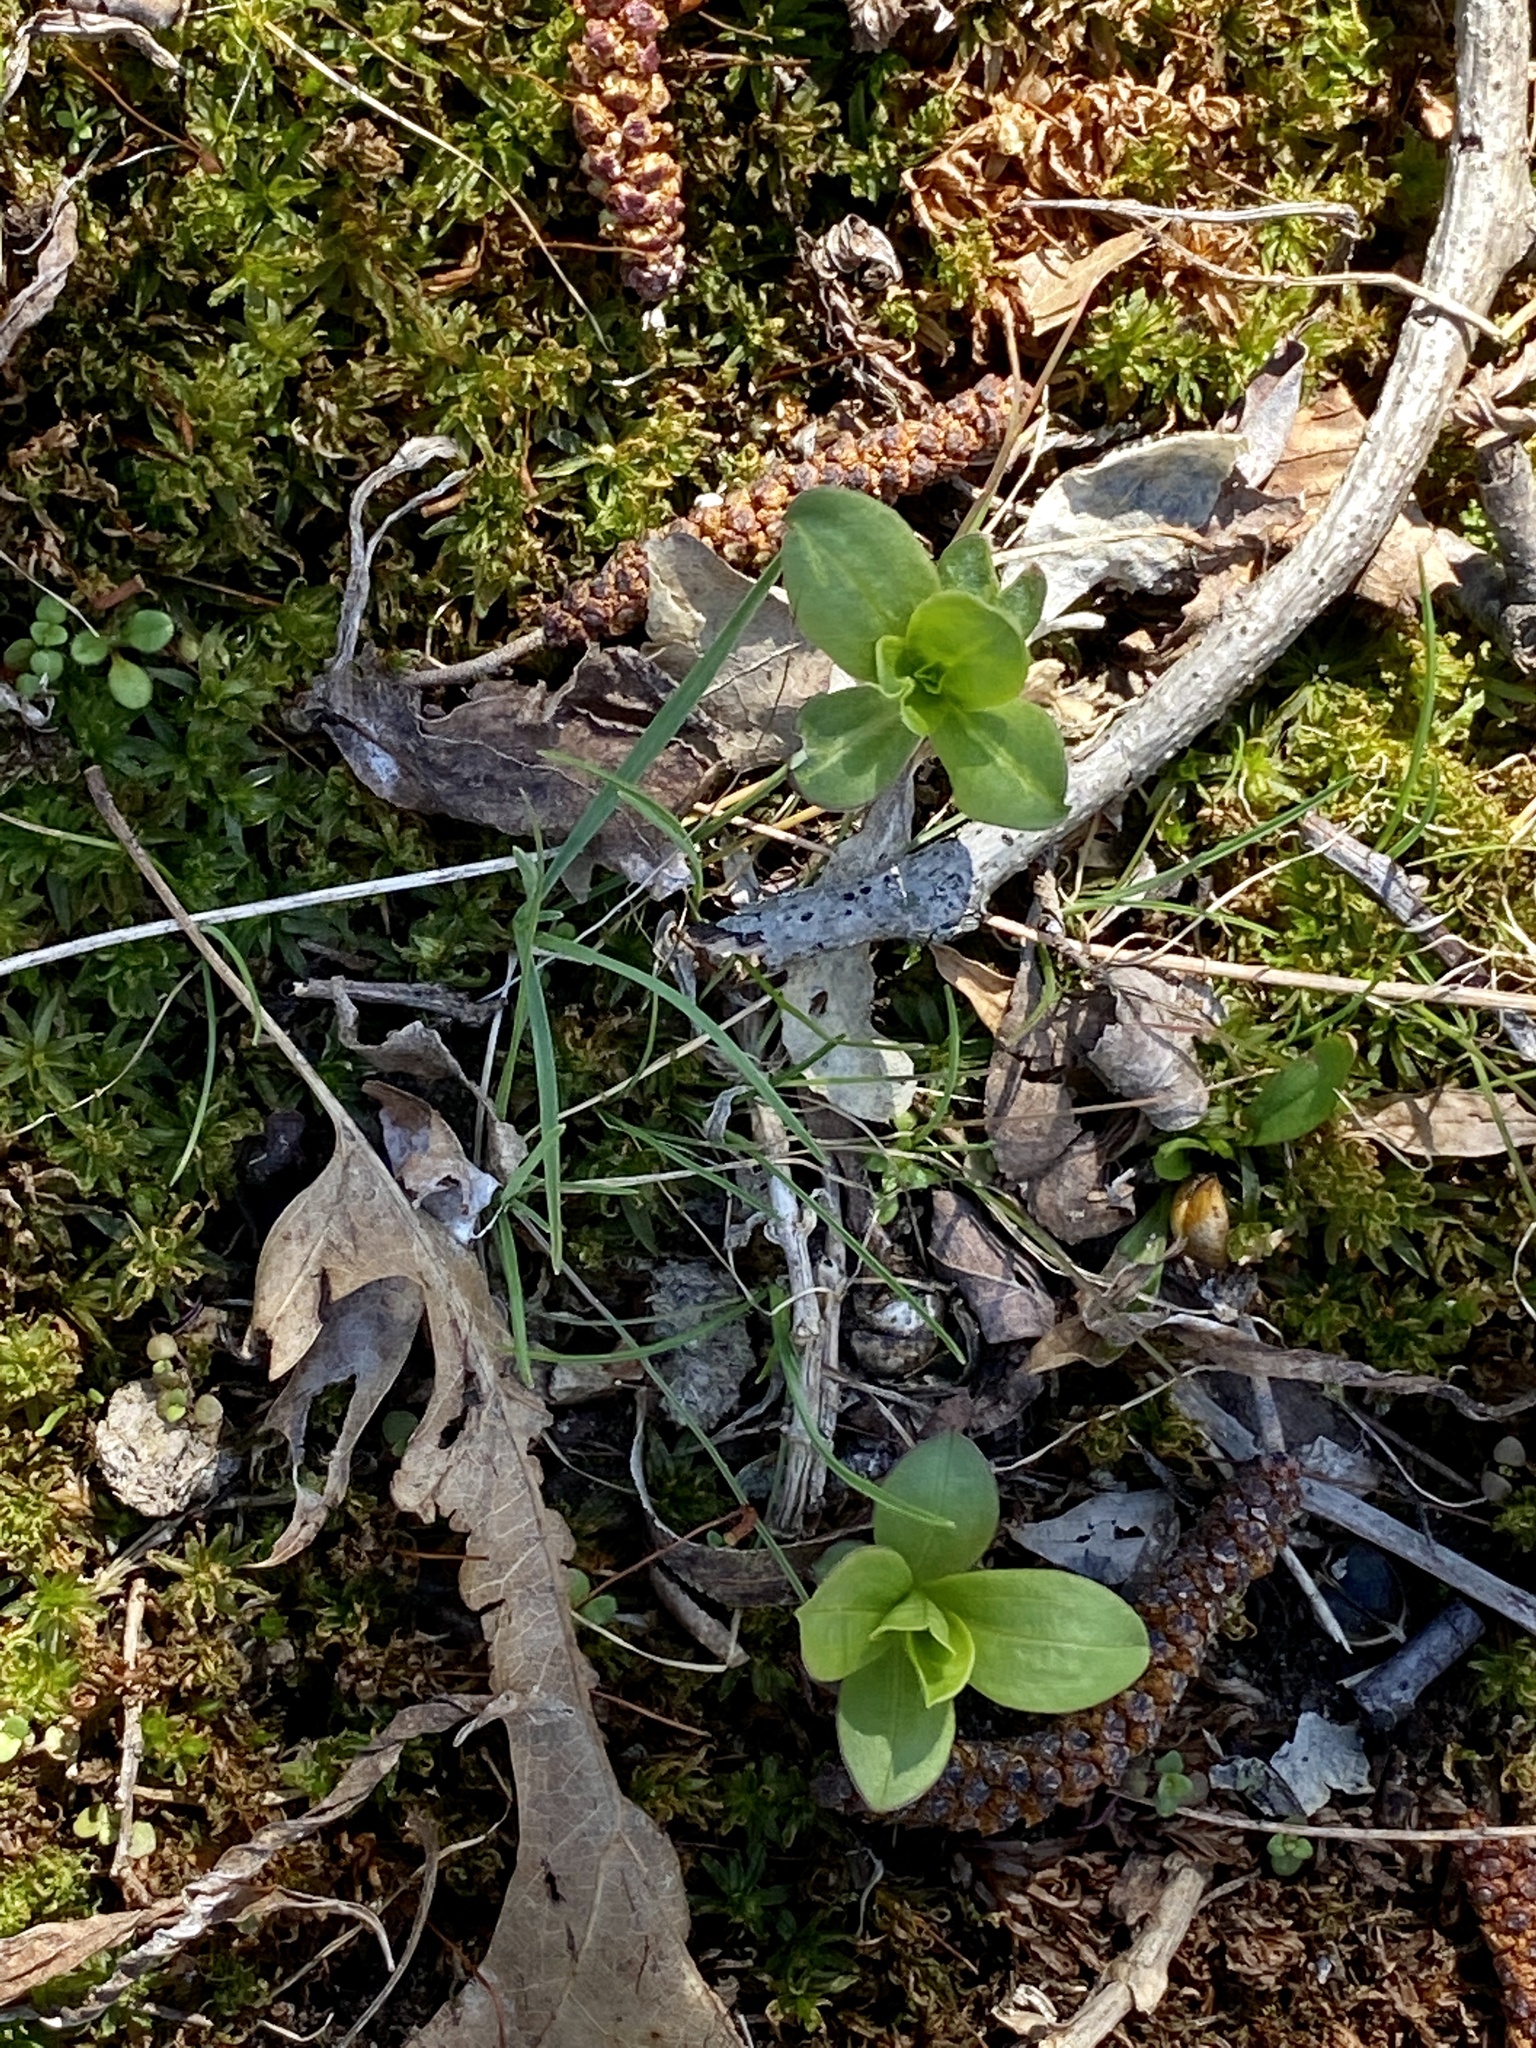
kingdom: Plantae
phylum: Tracheophyta
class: Magnoliopsida
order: Caryophyllales
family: Caryophyllaceae
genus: Saponaria
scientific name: Saponaria officinalis
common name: Soapwort
